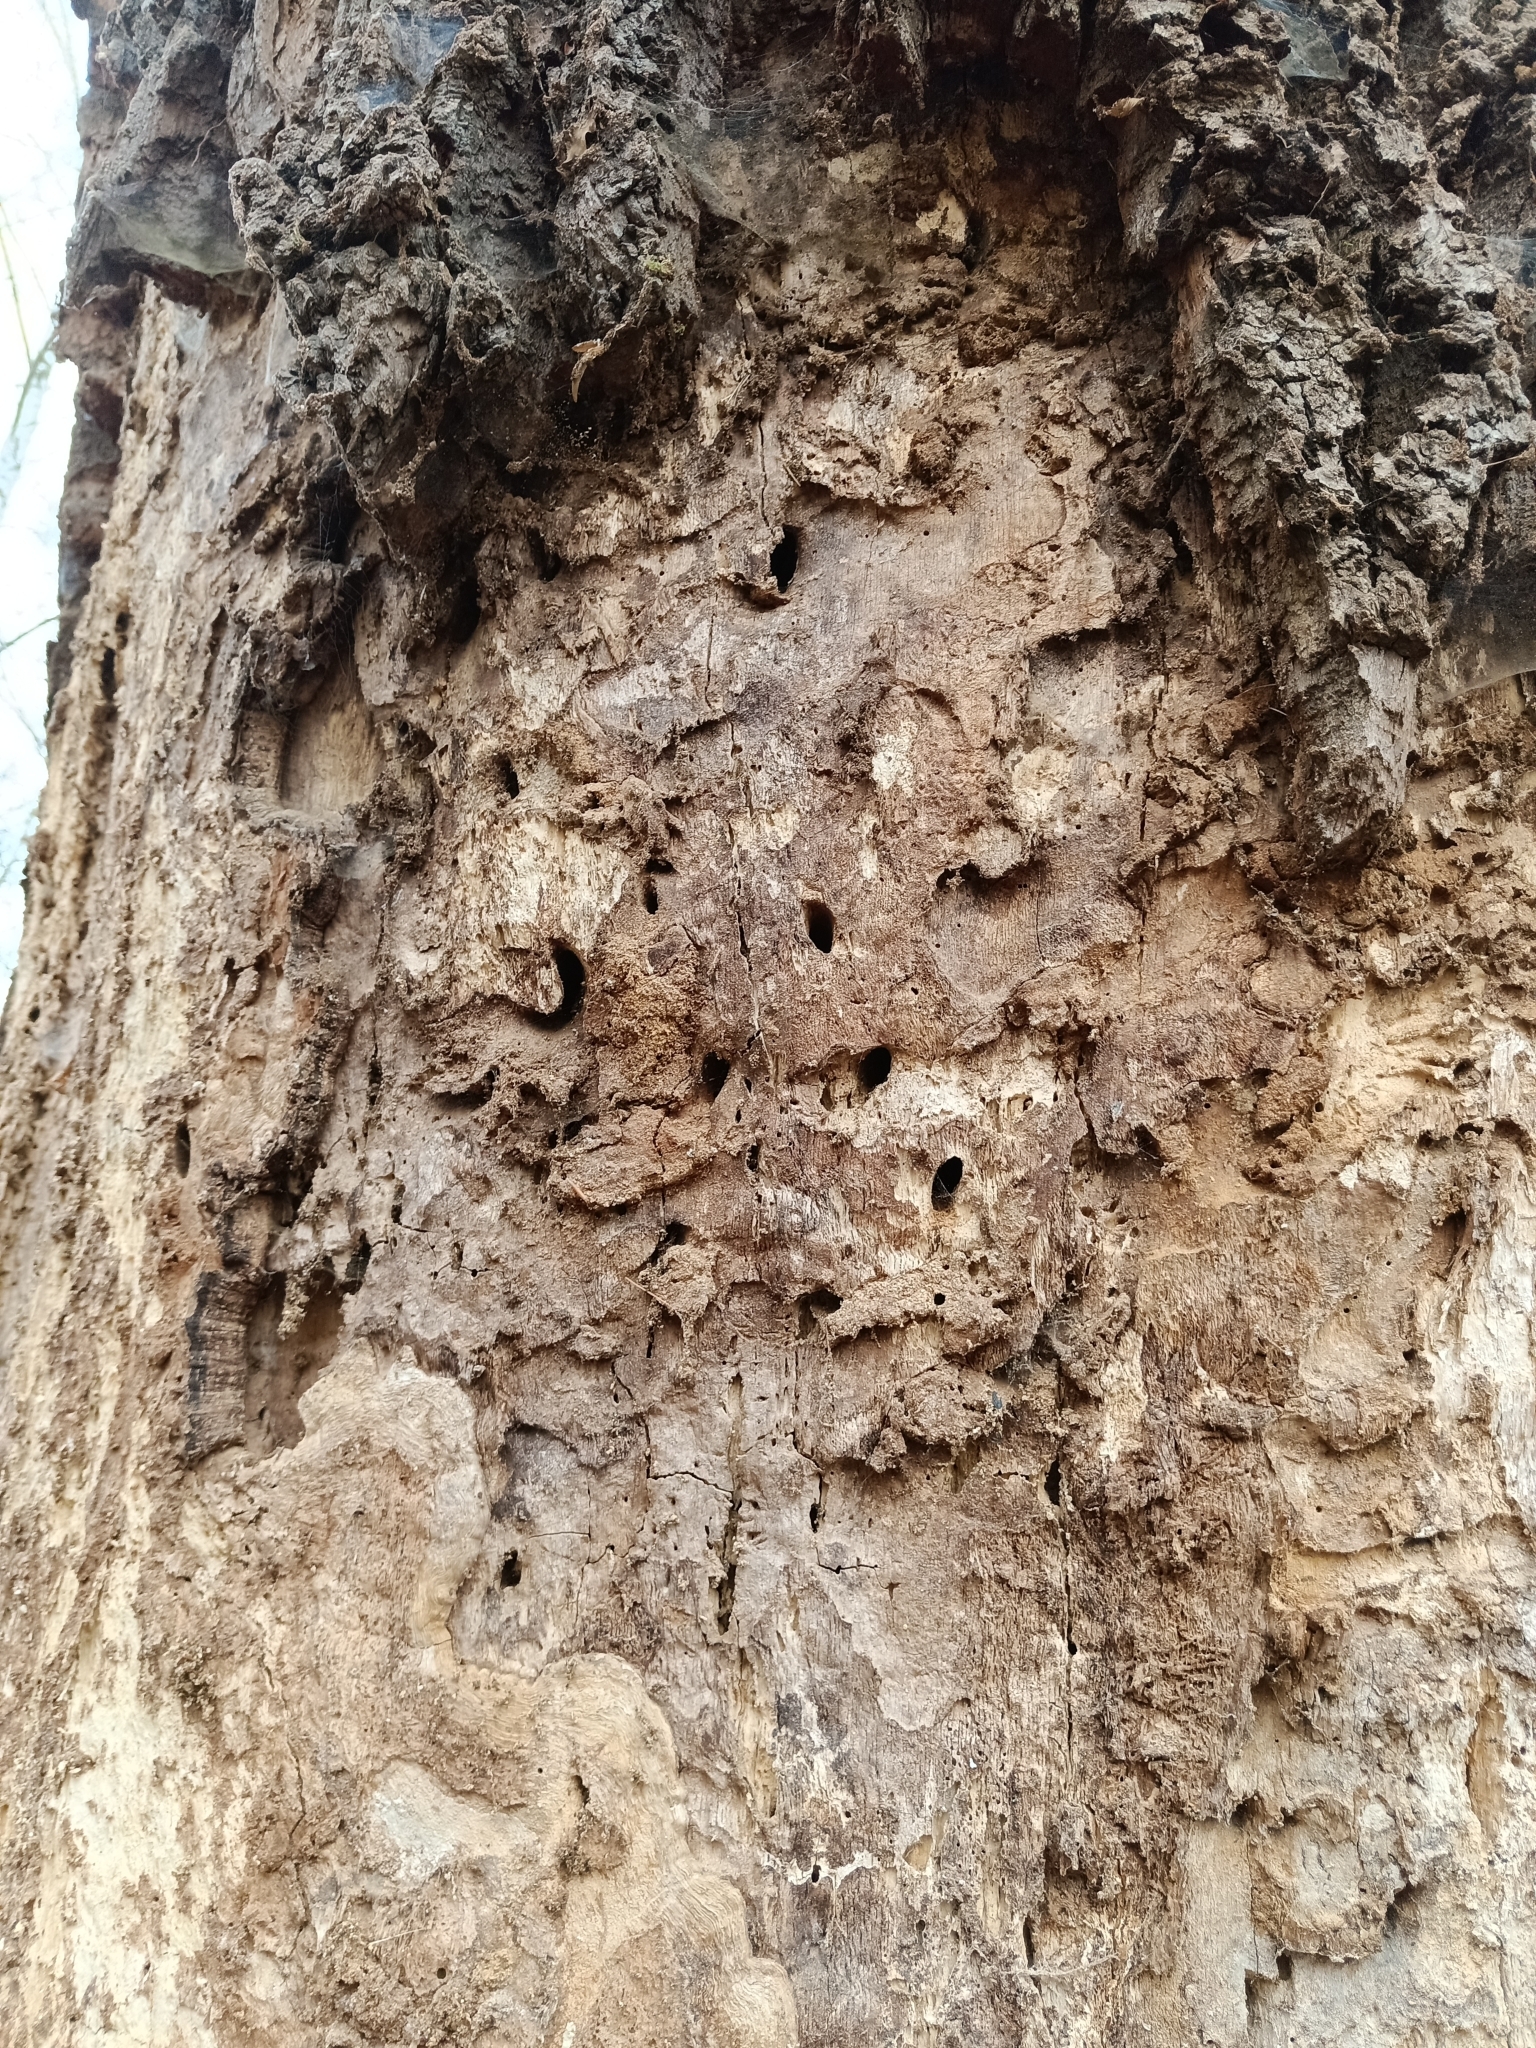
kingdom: Animalia
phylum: Arthropoda
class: Insecta
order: Coleoptera
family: Cerambycidae
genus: Cerambyx
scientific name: Cerambyx cerdo
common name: Cerambyx longicorn
